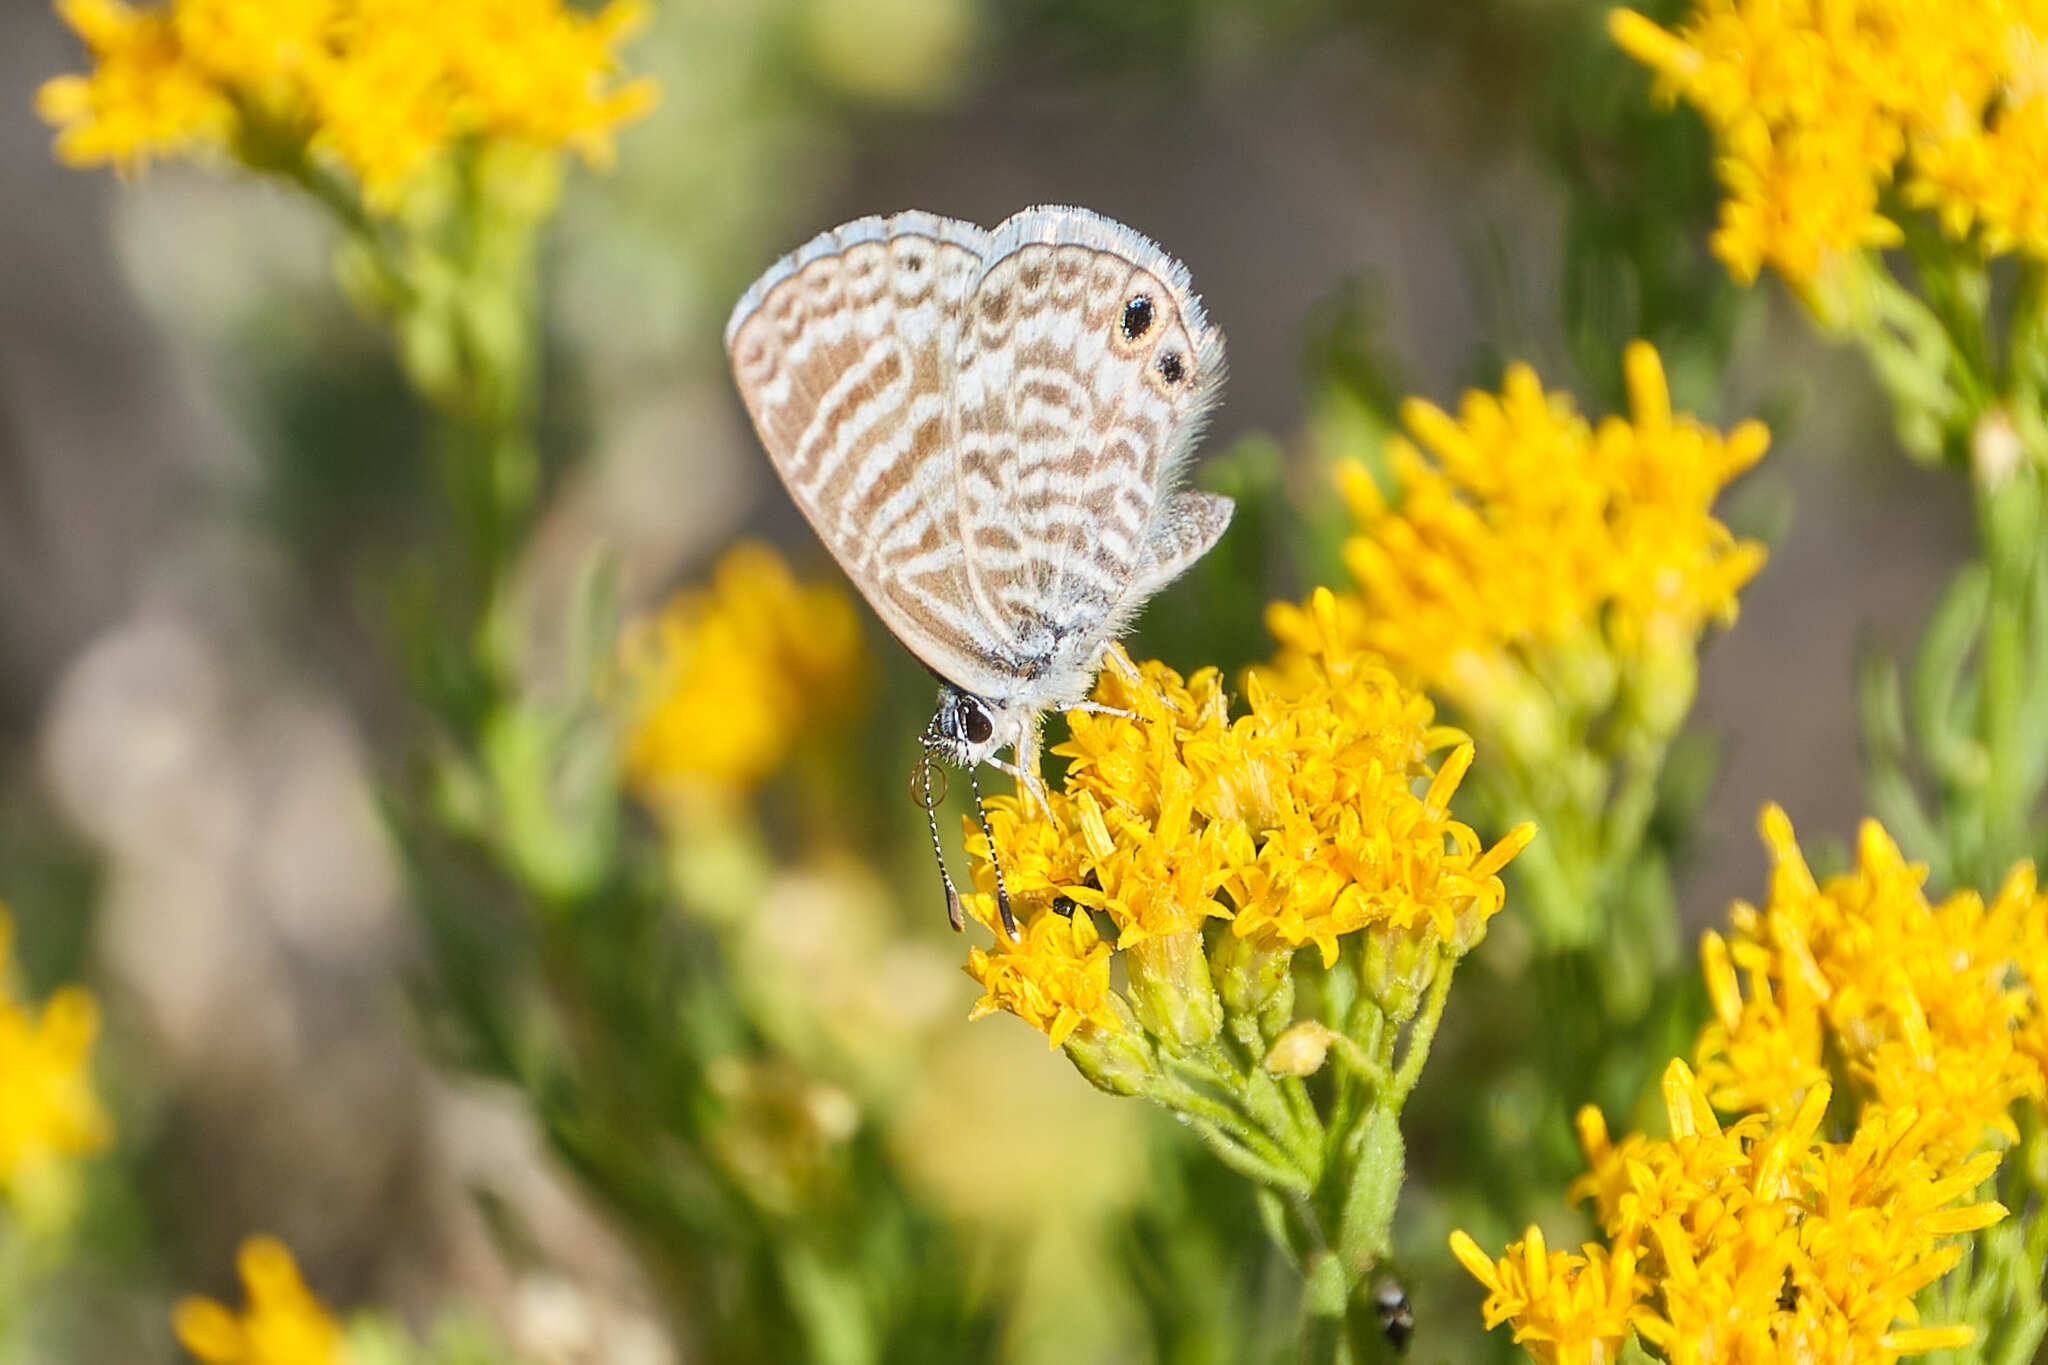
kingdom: Animalia
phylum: Arthropoda
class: Insecta
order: Lepidoptera
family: Lycaenidae
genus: Leptotes
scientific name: Leptotes marina
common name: Marine blue
